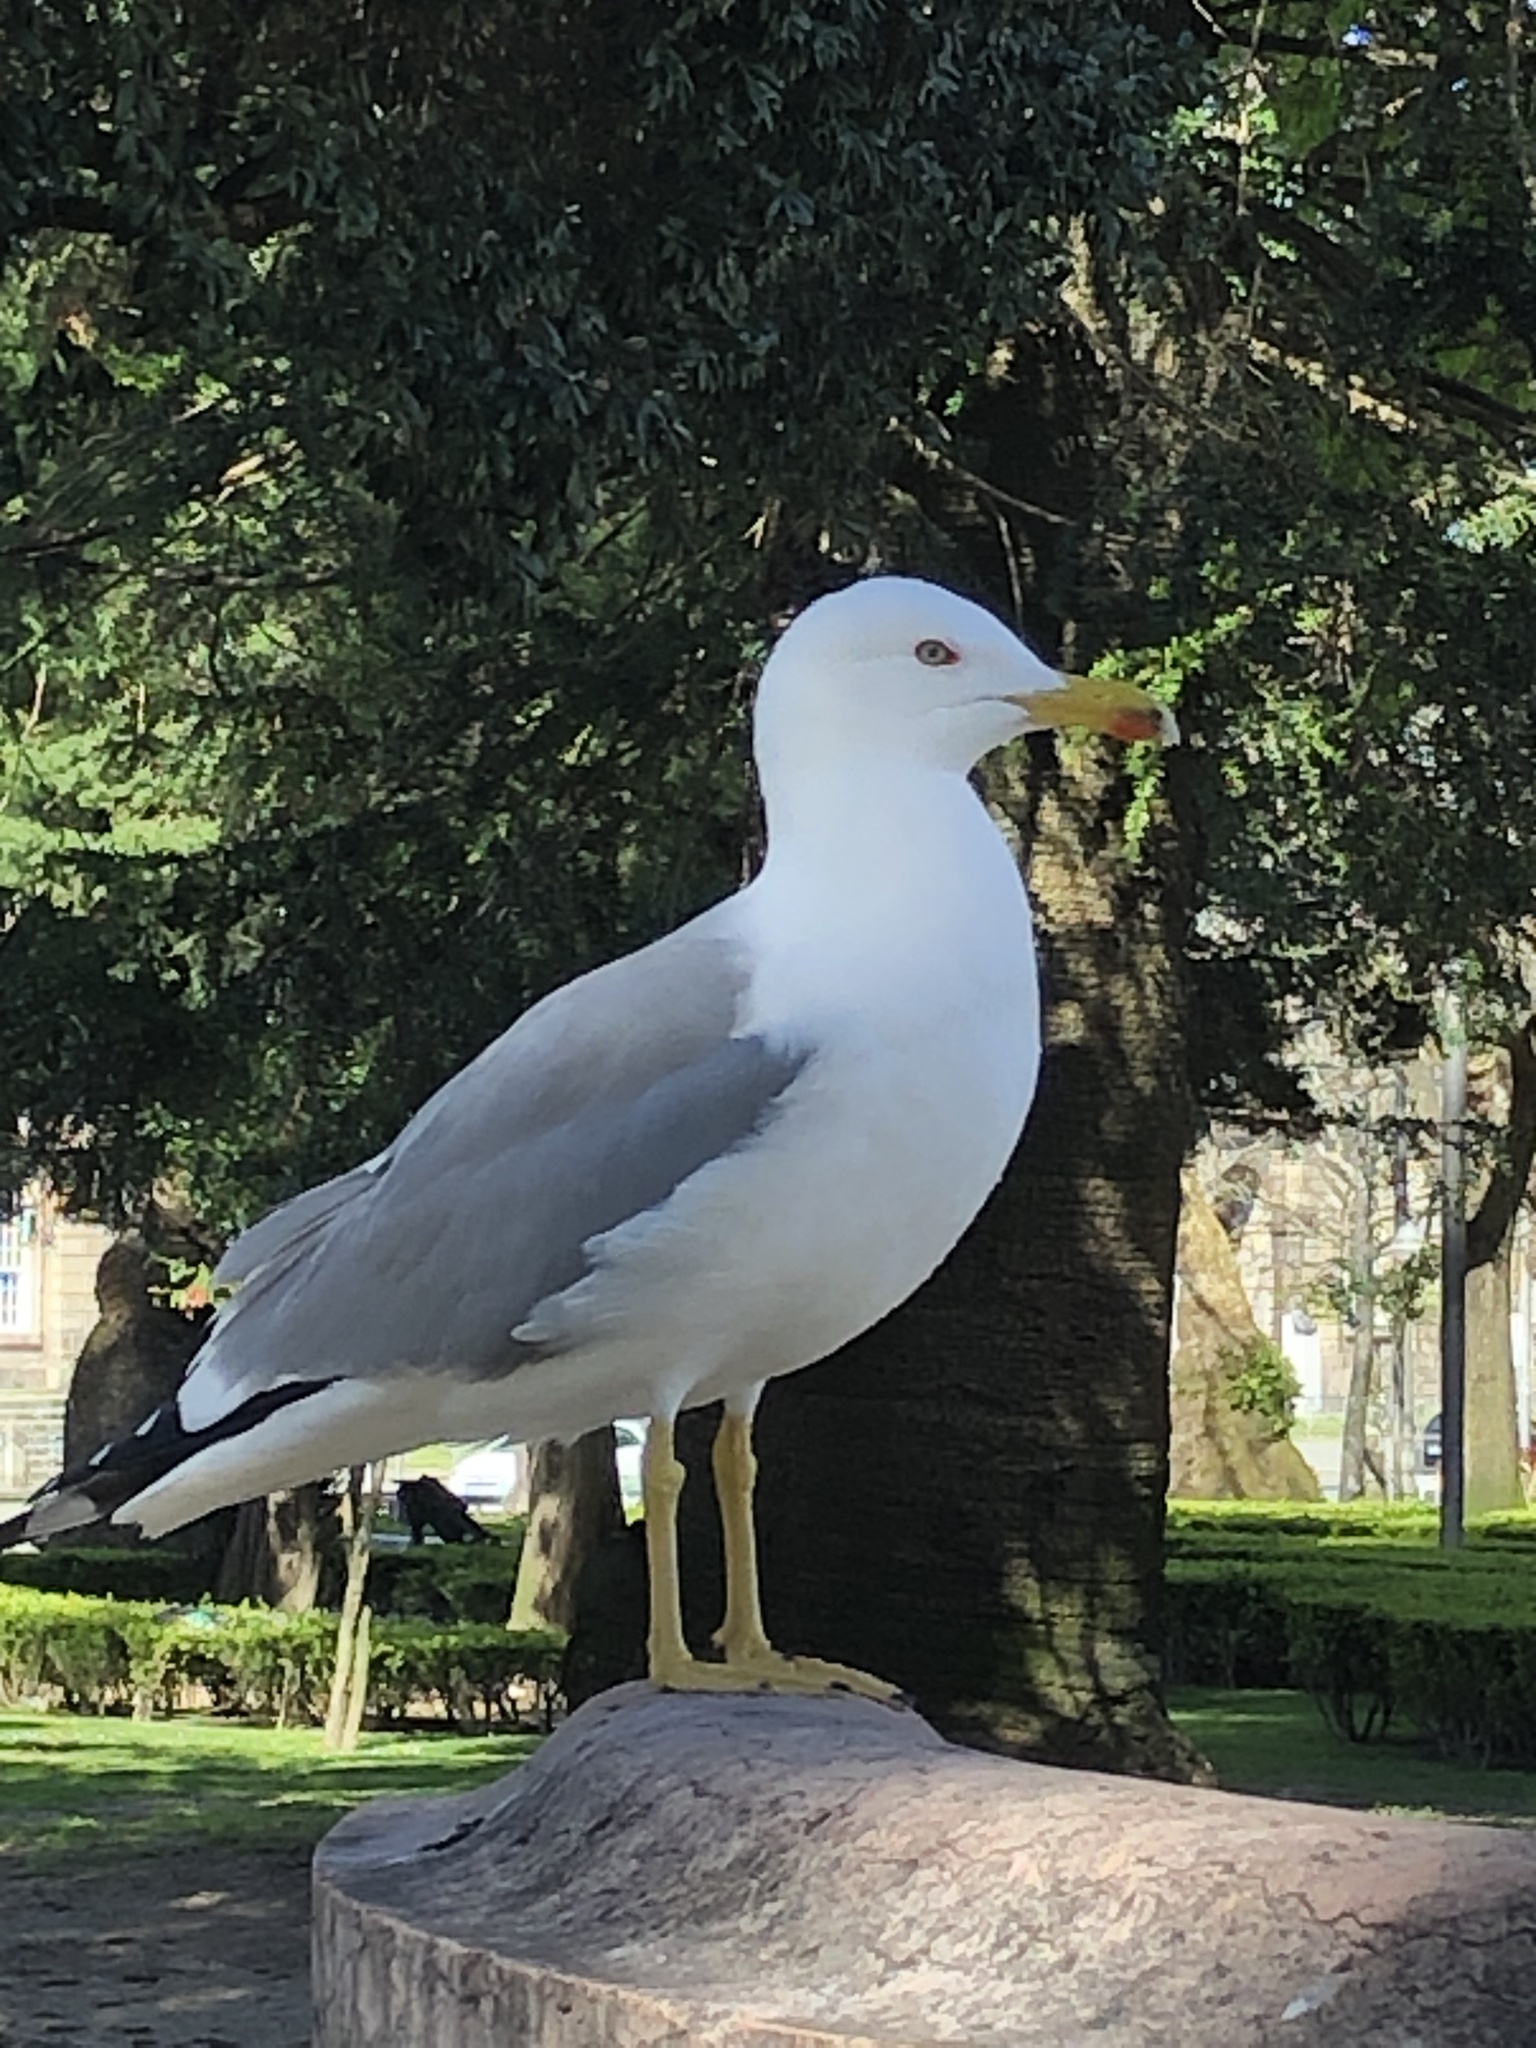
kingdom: Animalia
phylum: Chordata
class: Aves
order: Charadriiformes
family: Laridae
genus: Larus
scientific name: Larus michahellis
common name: Yellow-legged gull
